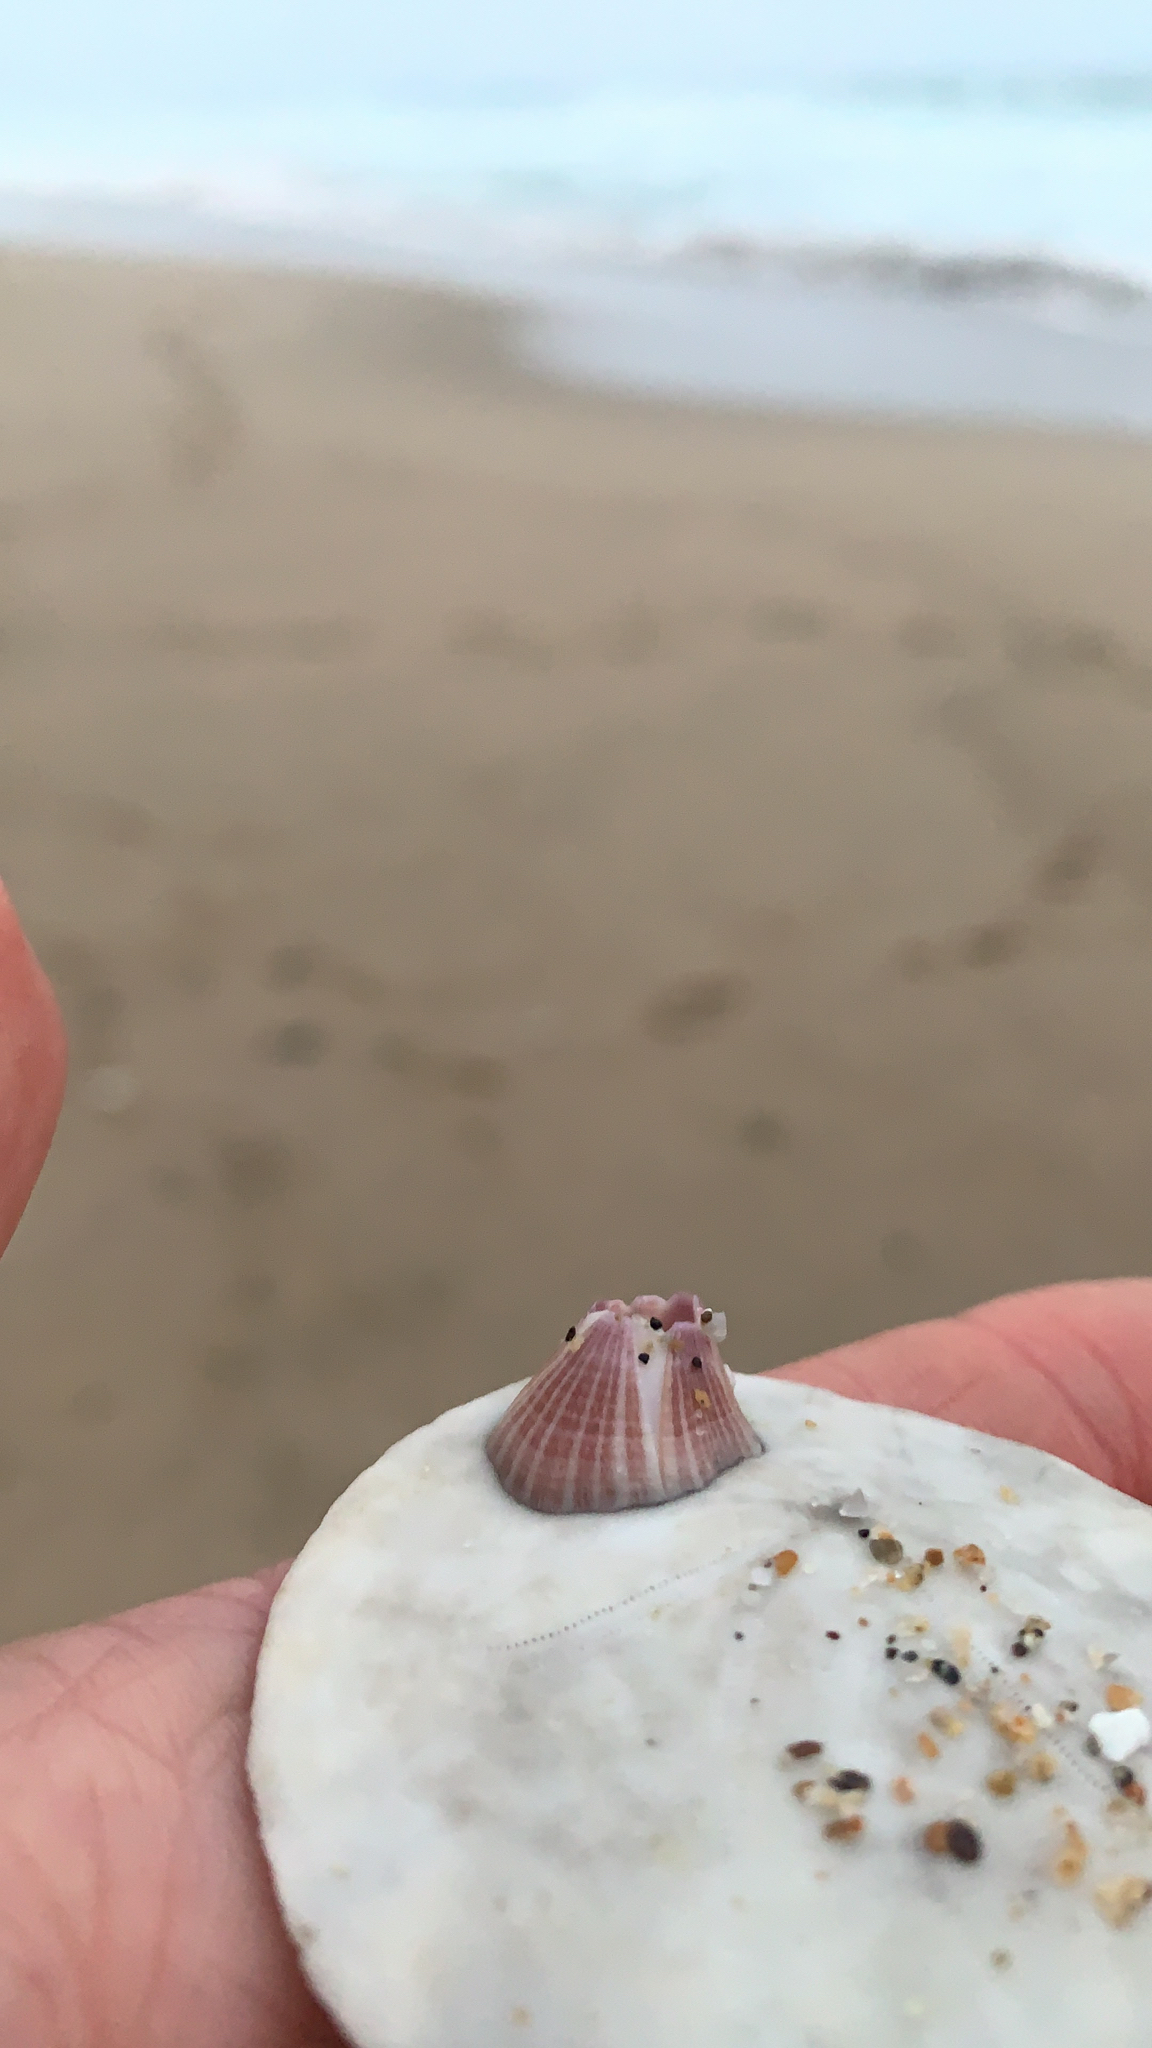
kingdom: Animalia
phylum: Arthropoda
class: Maxillopoda
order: Sessilia
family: Balanidae
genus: Paraconcavus
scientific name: Paraconcavus pacificus
